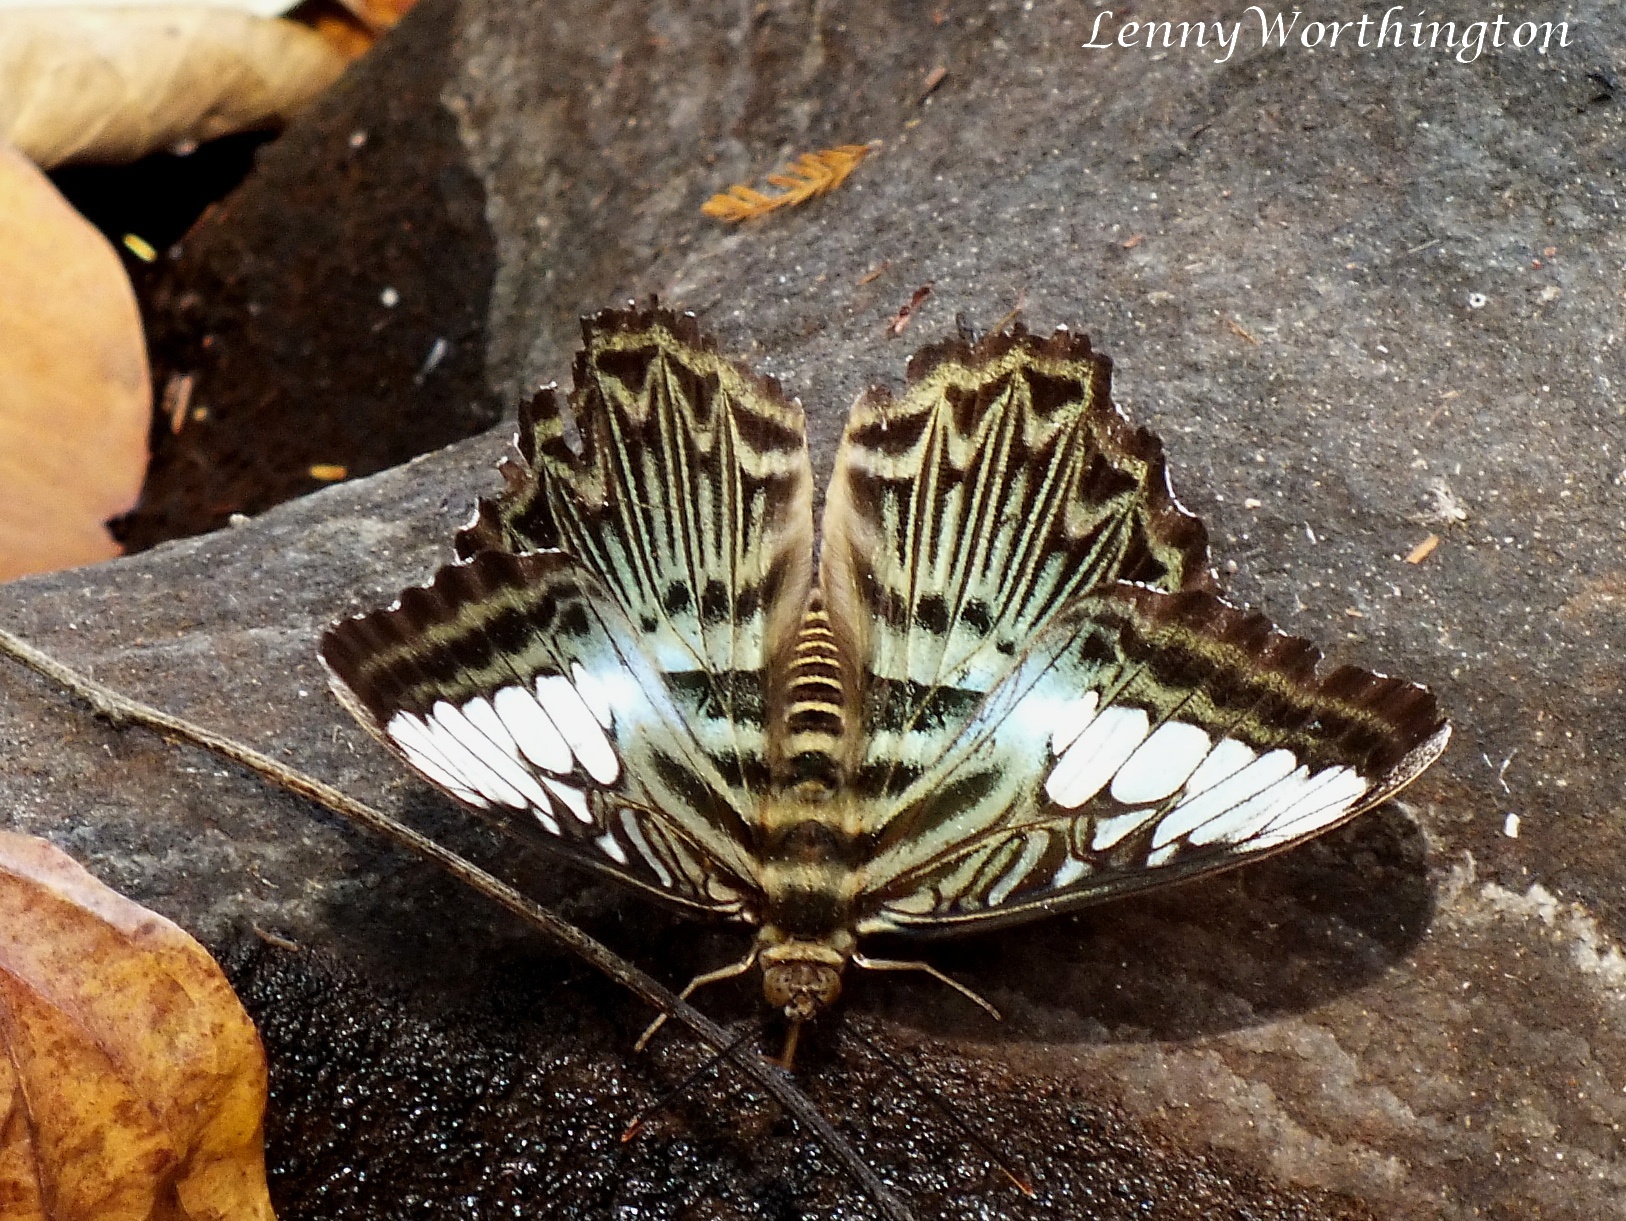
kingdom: Animalia
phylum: Arthropoda
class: Insecta
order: Lepidoptera
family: Nymphalidae
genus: Kallima
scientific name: Kallima sylvia
